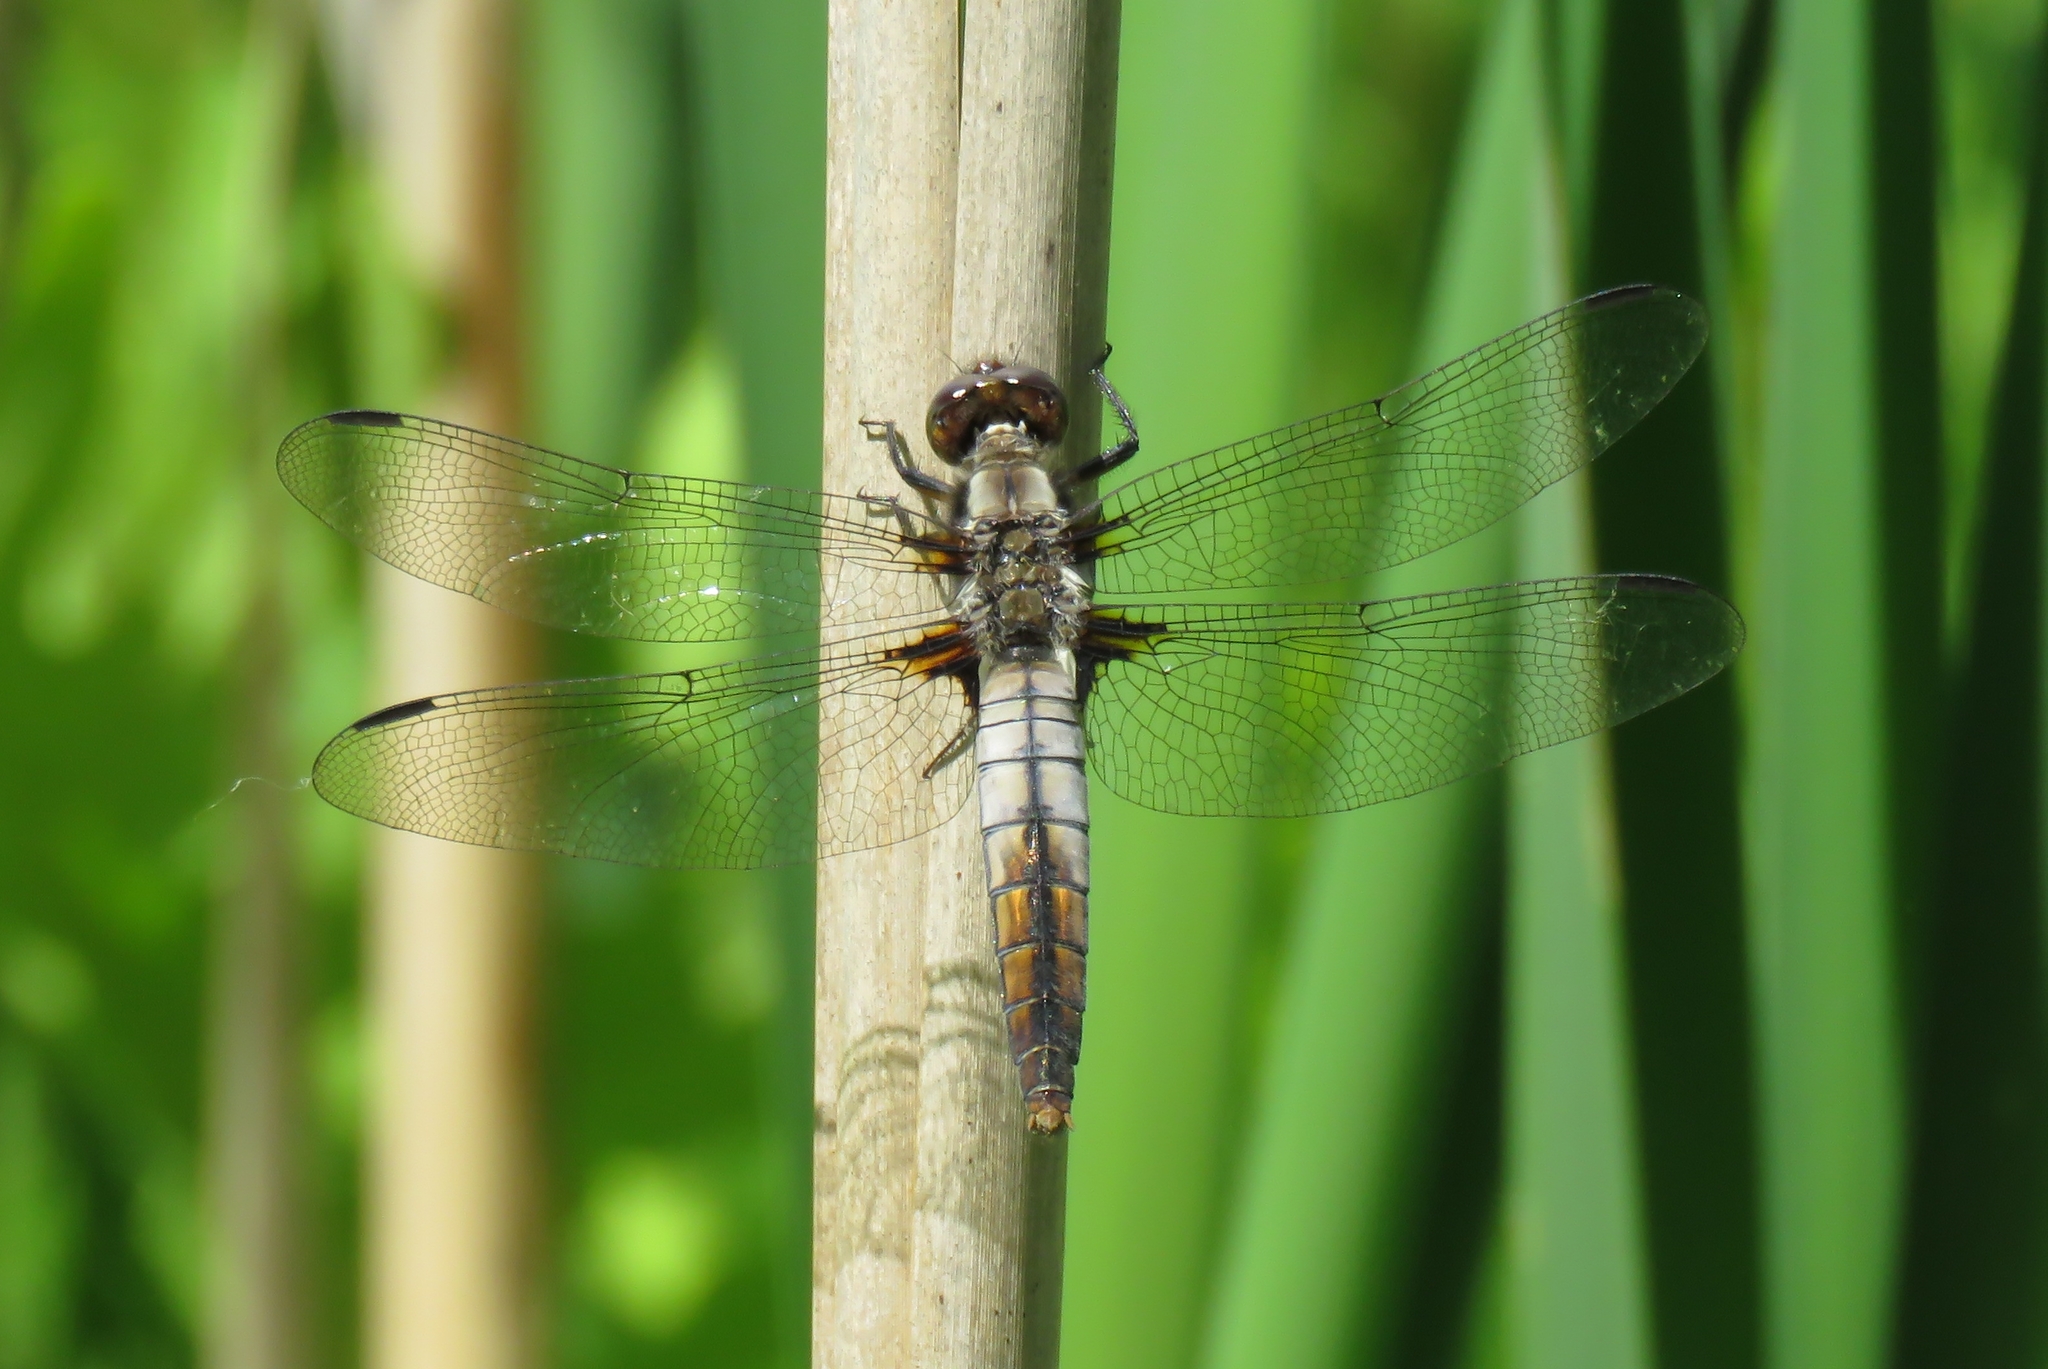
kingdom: Animalia
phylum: Arthropoda
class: Insecta
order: Odonata
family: Libellulidae
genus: Ladona
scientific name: Ladona julia
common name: Chalk-fronted corporal
